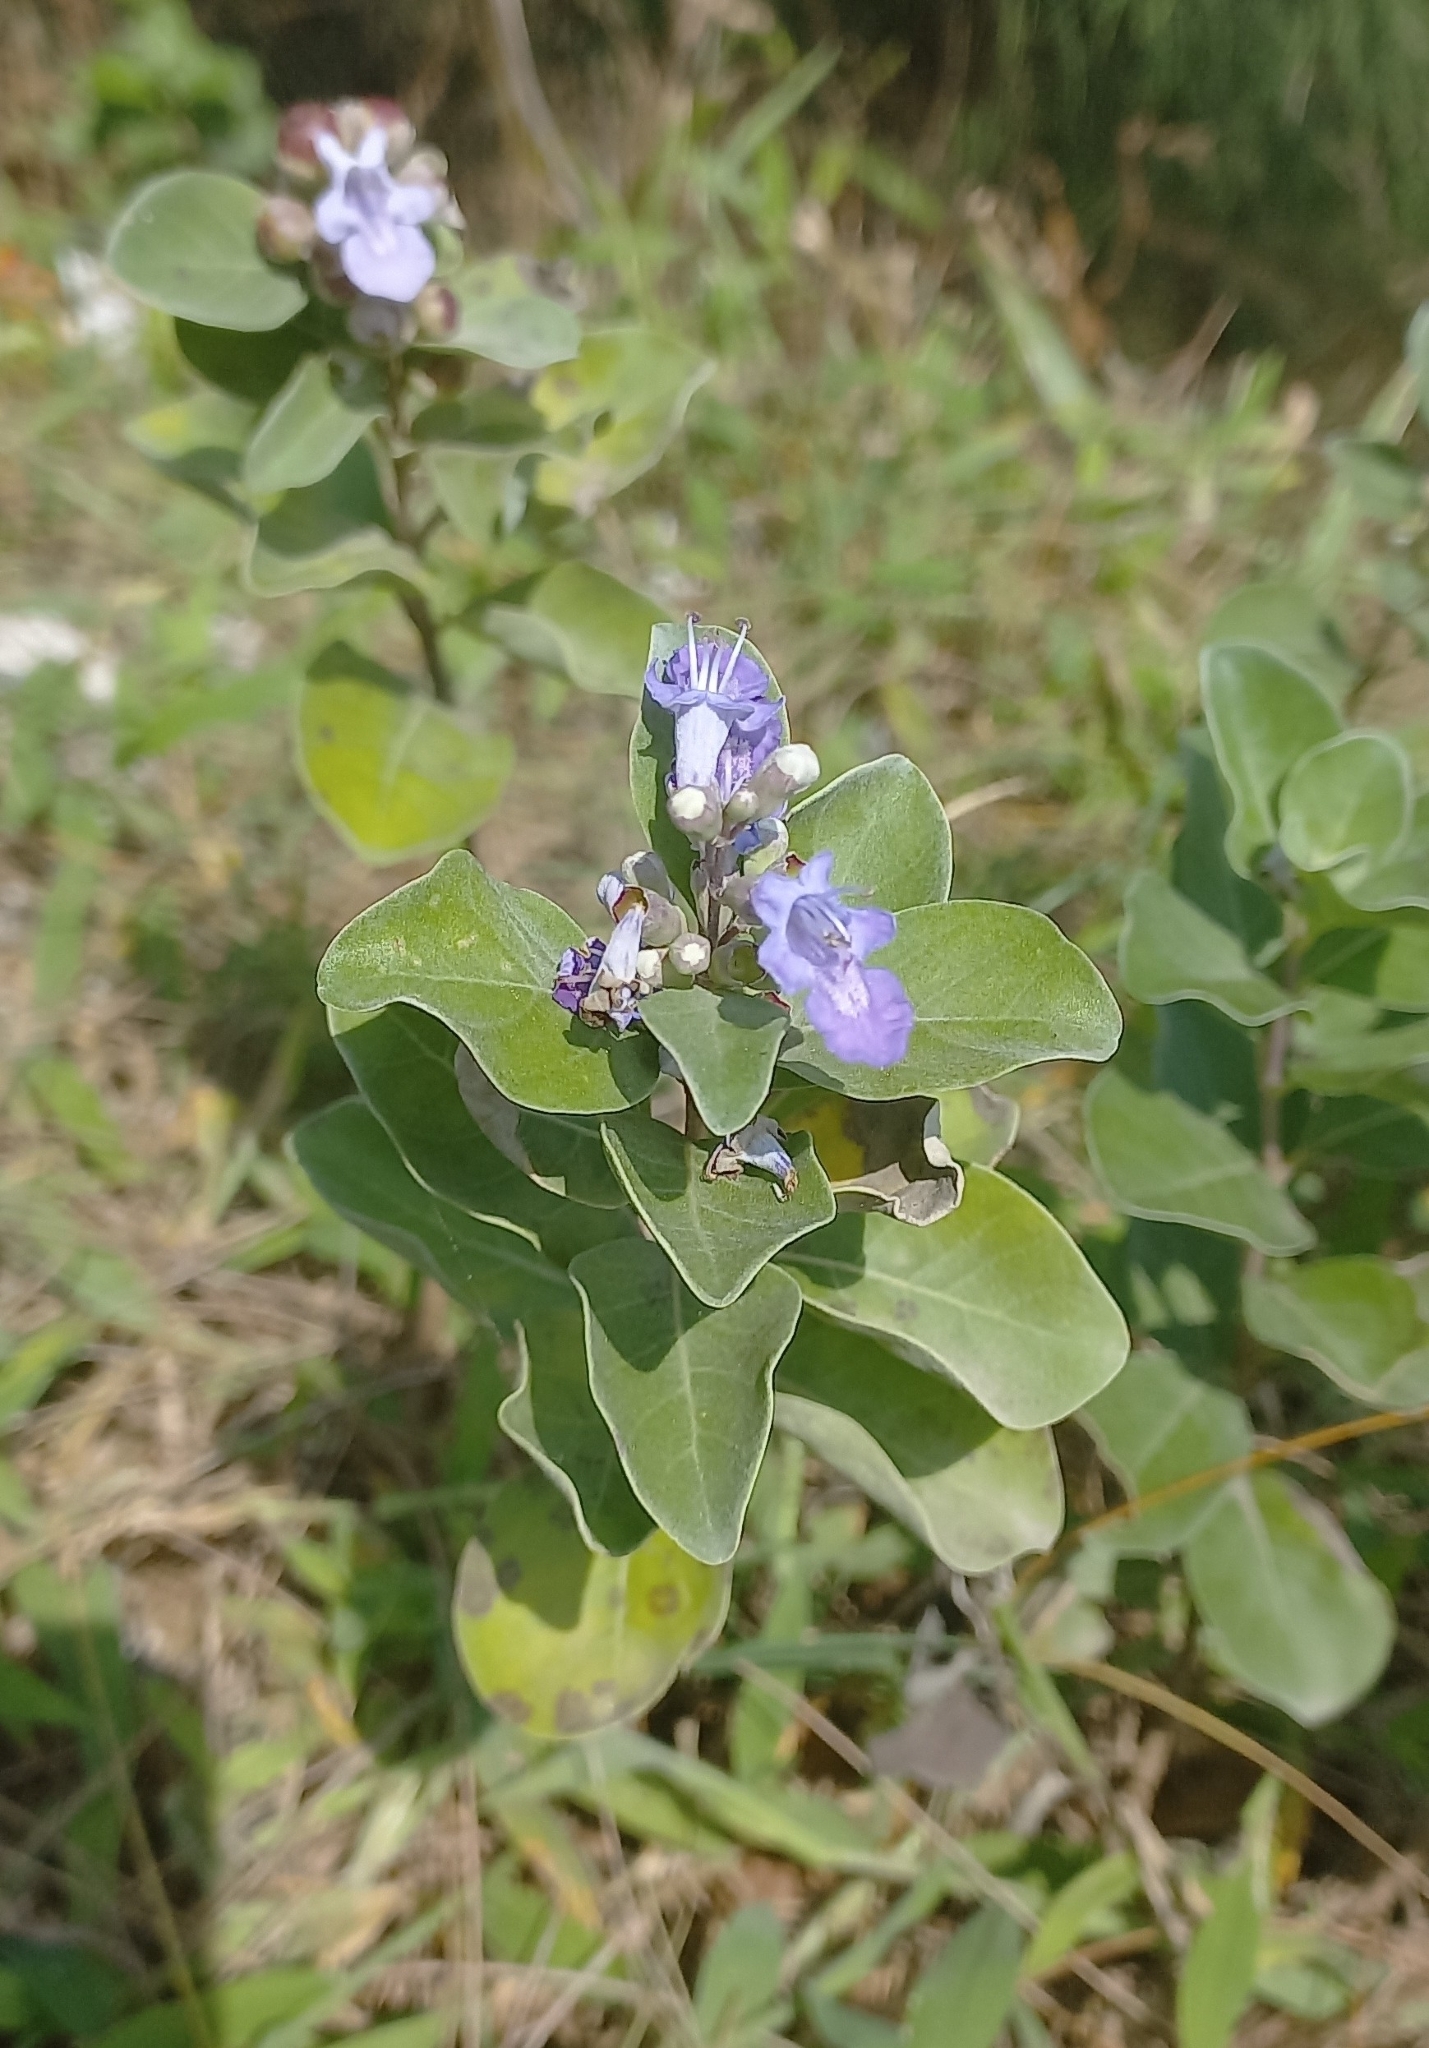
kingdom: Plantae
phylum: Tracheophyta
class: Magnoliopsida
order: Lamiales
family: Lamiaceae
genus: Vitex
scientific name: Vitex rotundifolia
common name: Beach vitex
